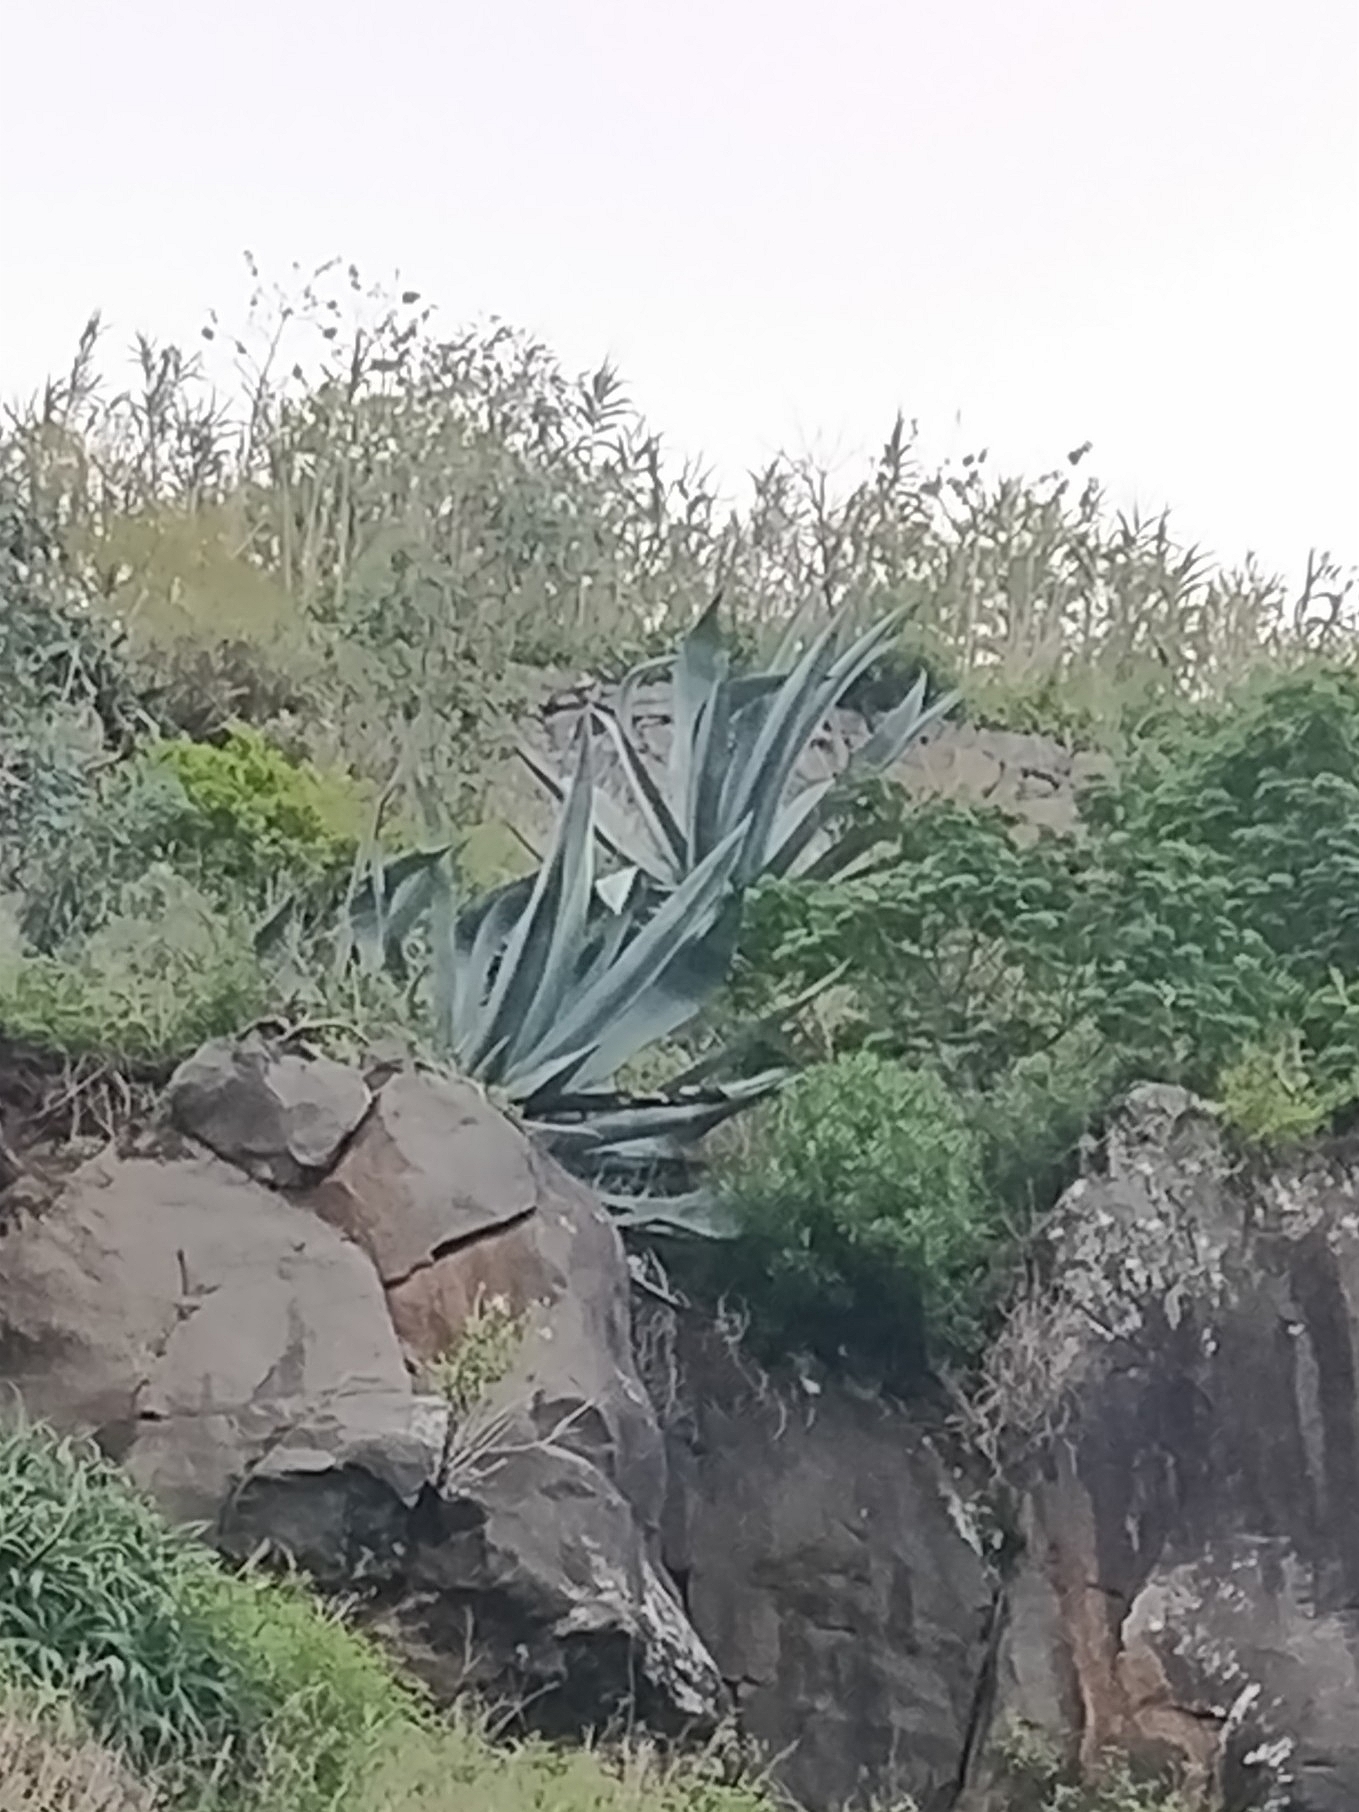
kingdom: Plantae
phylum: Tracheophyta
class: Liliopsida
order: Asparagales
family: Asparagaceae
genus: Agave
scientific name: Agave americana
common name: Centuryplant
